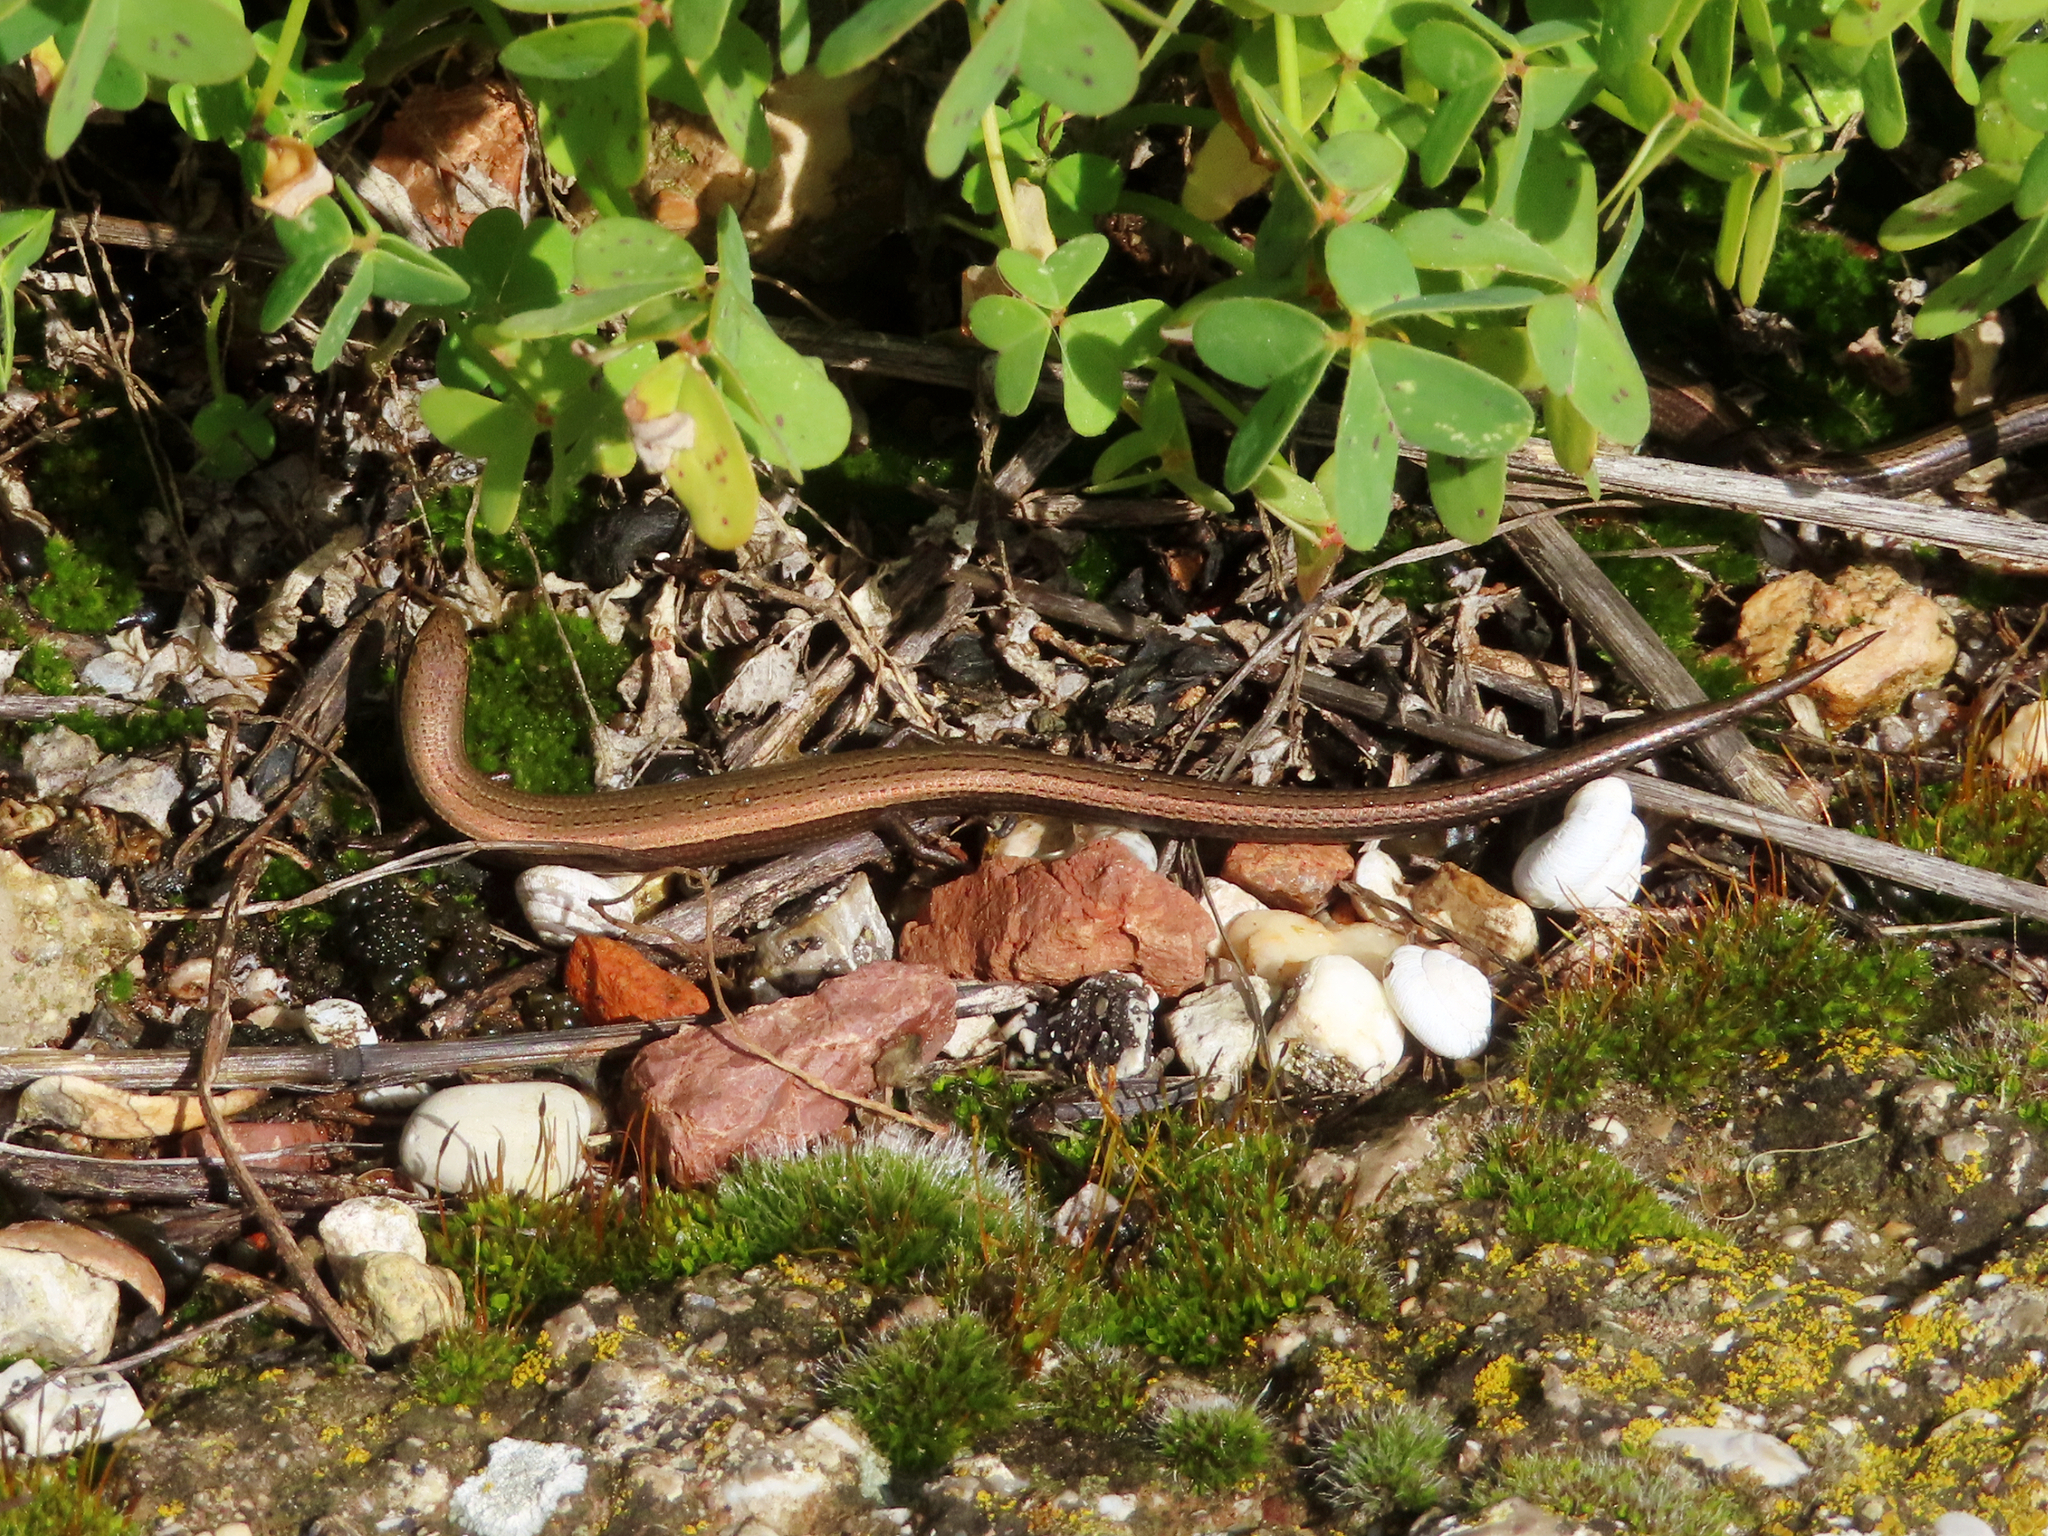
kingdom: Animalia
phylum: Chordata
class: Squamata
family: Scincidae
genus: Ablepharus
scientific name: Ablepharus kitaibelii
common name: Juniper skink
